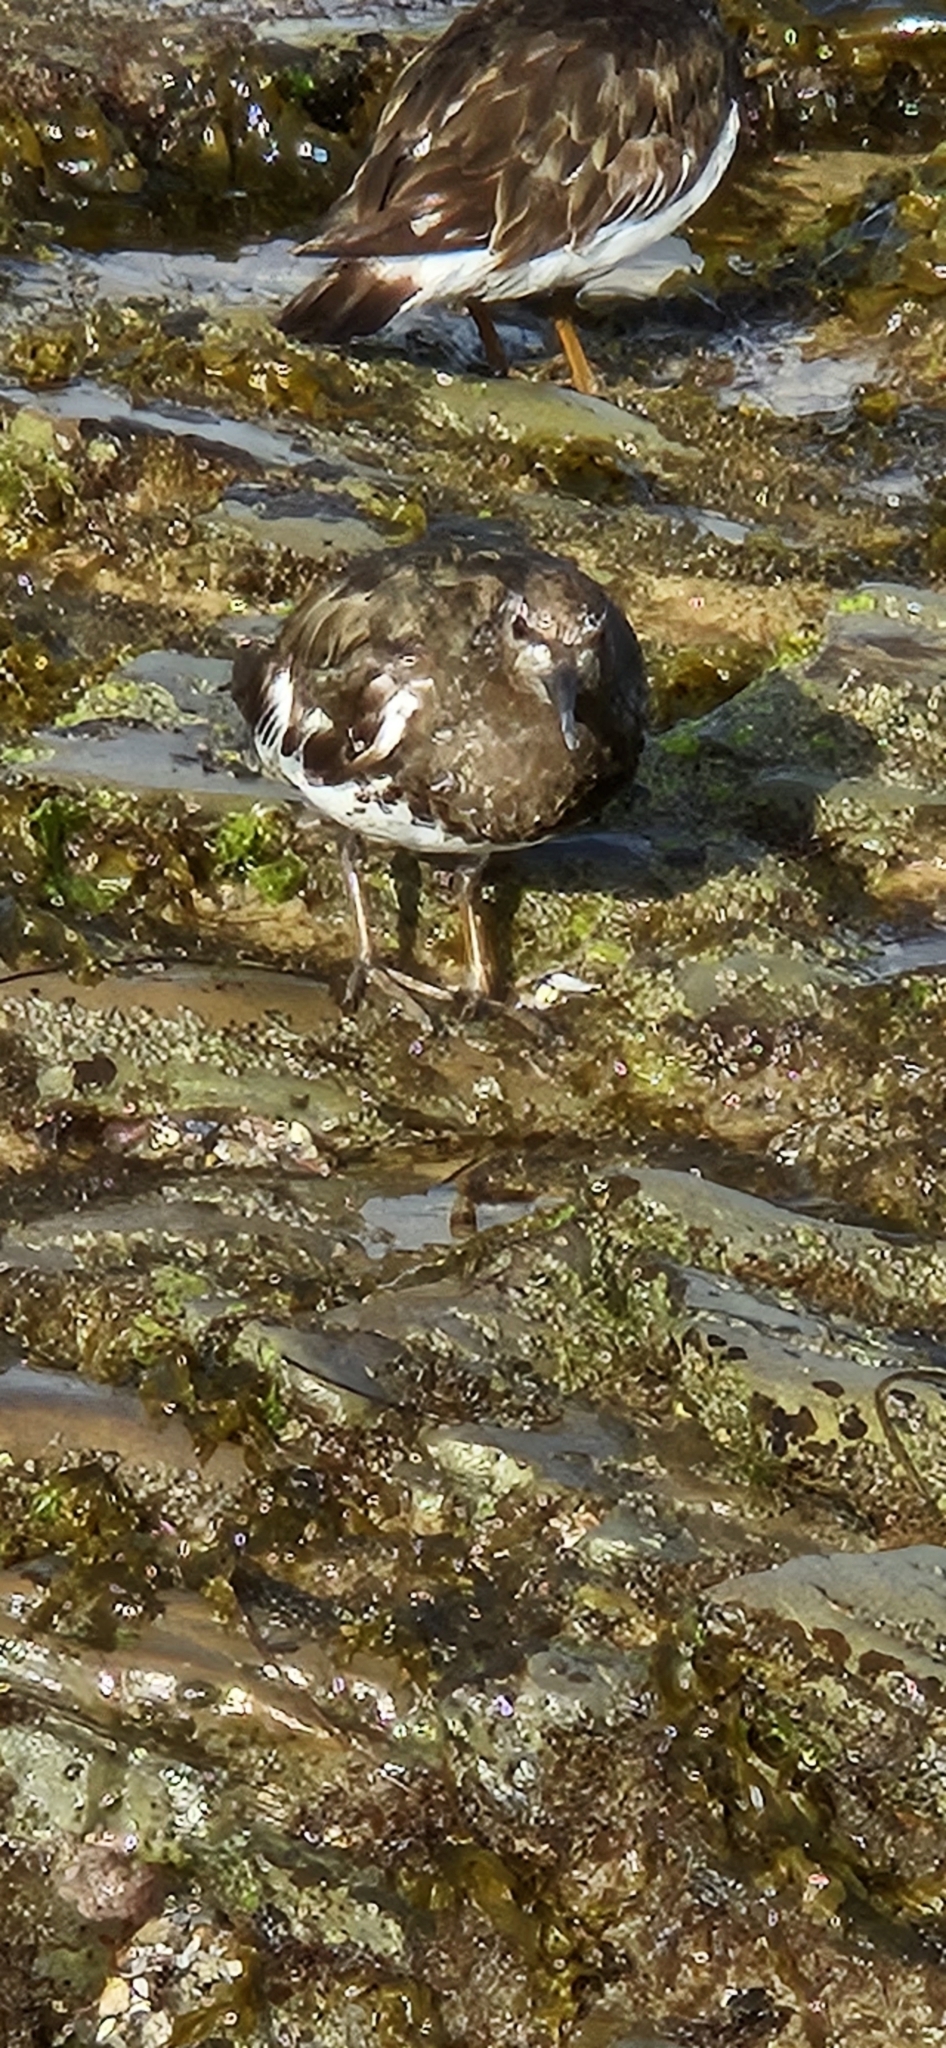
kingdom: Animalia
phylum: Chordata
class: Aves
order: Charadriiformes
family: Scolopacidae
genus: Arenaria
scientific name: Arenaria melanocephala
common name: Black turnstone
